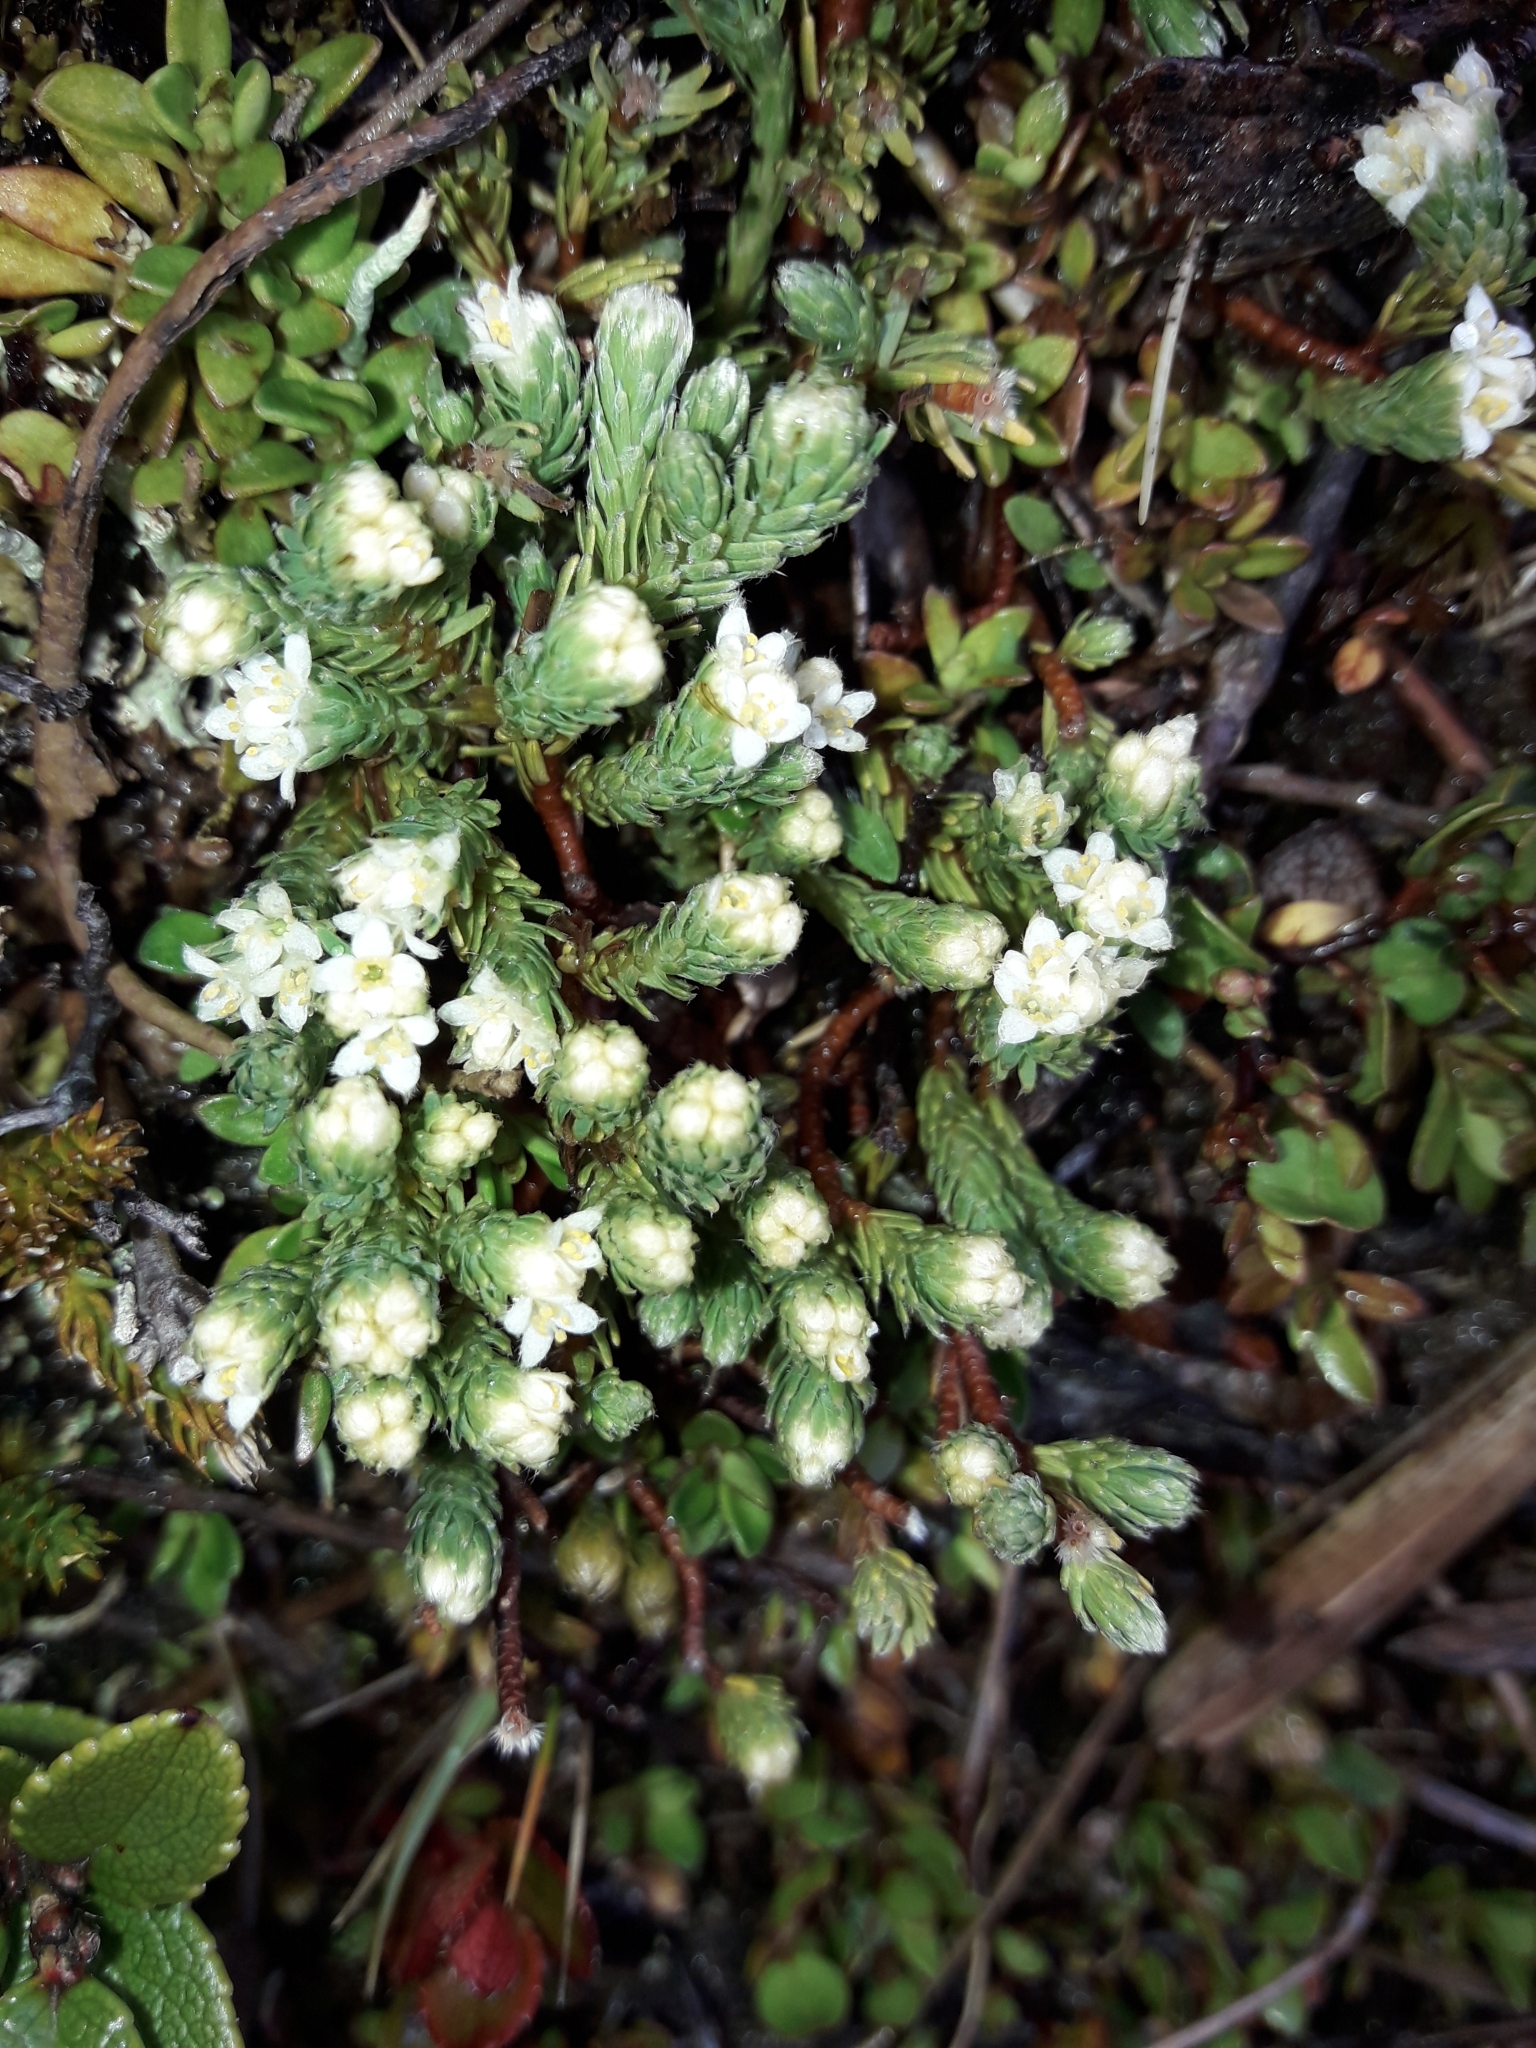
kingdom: Plantae
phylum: Tracheophyta
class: Magnoliopsida
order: Malvales
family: Thymelaeaceae
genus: Kelleria
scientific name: Kelleria dieffenbachii
